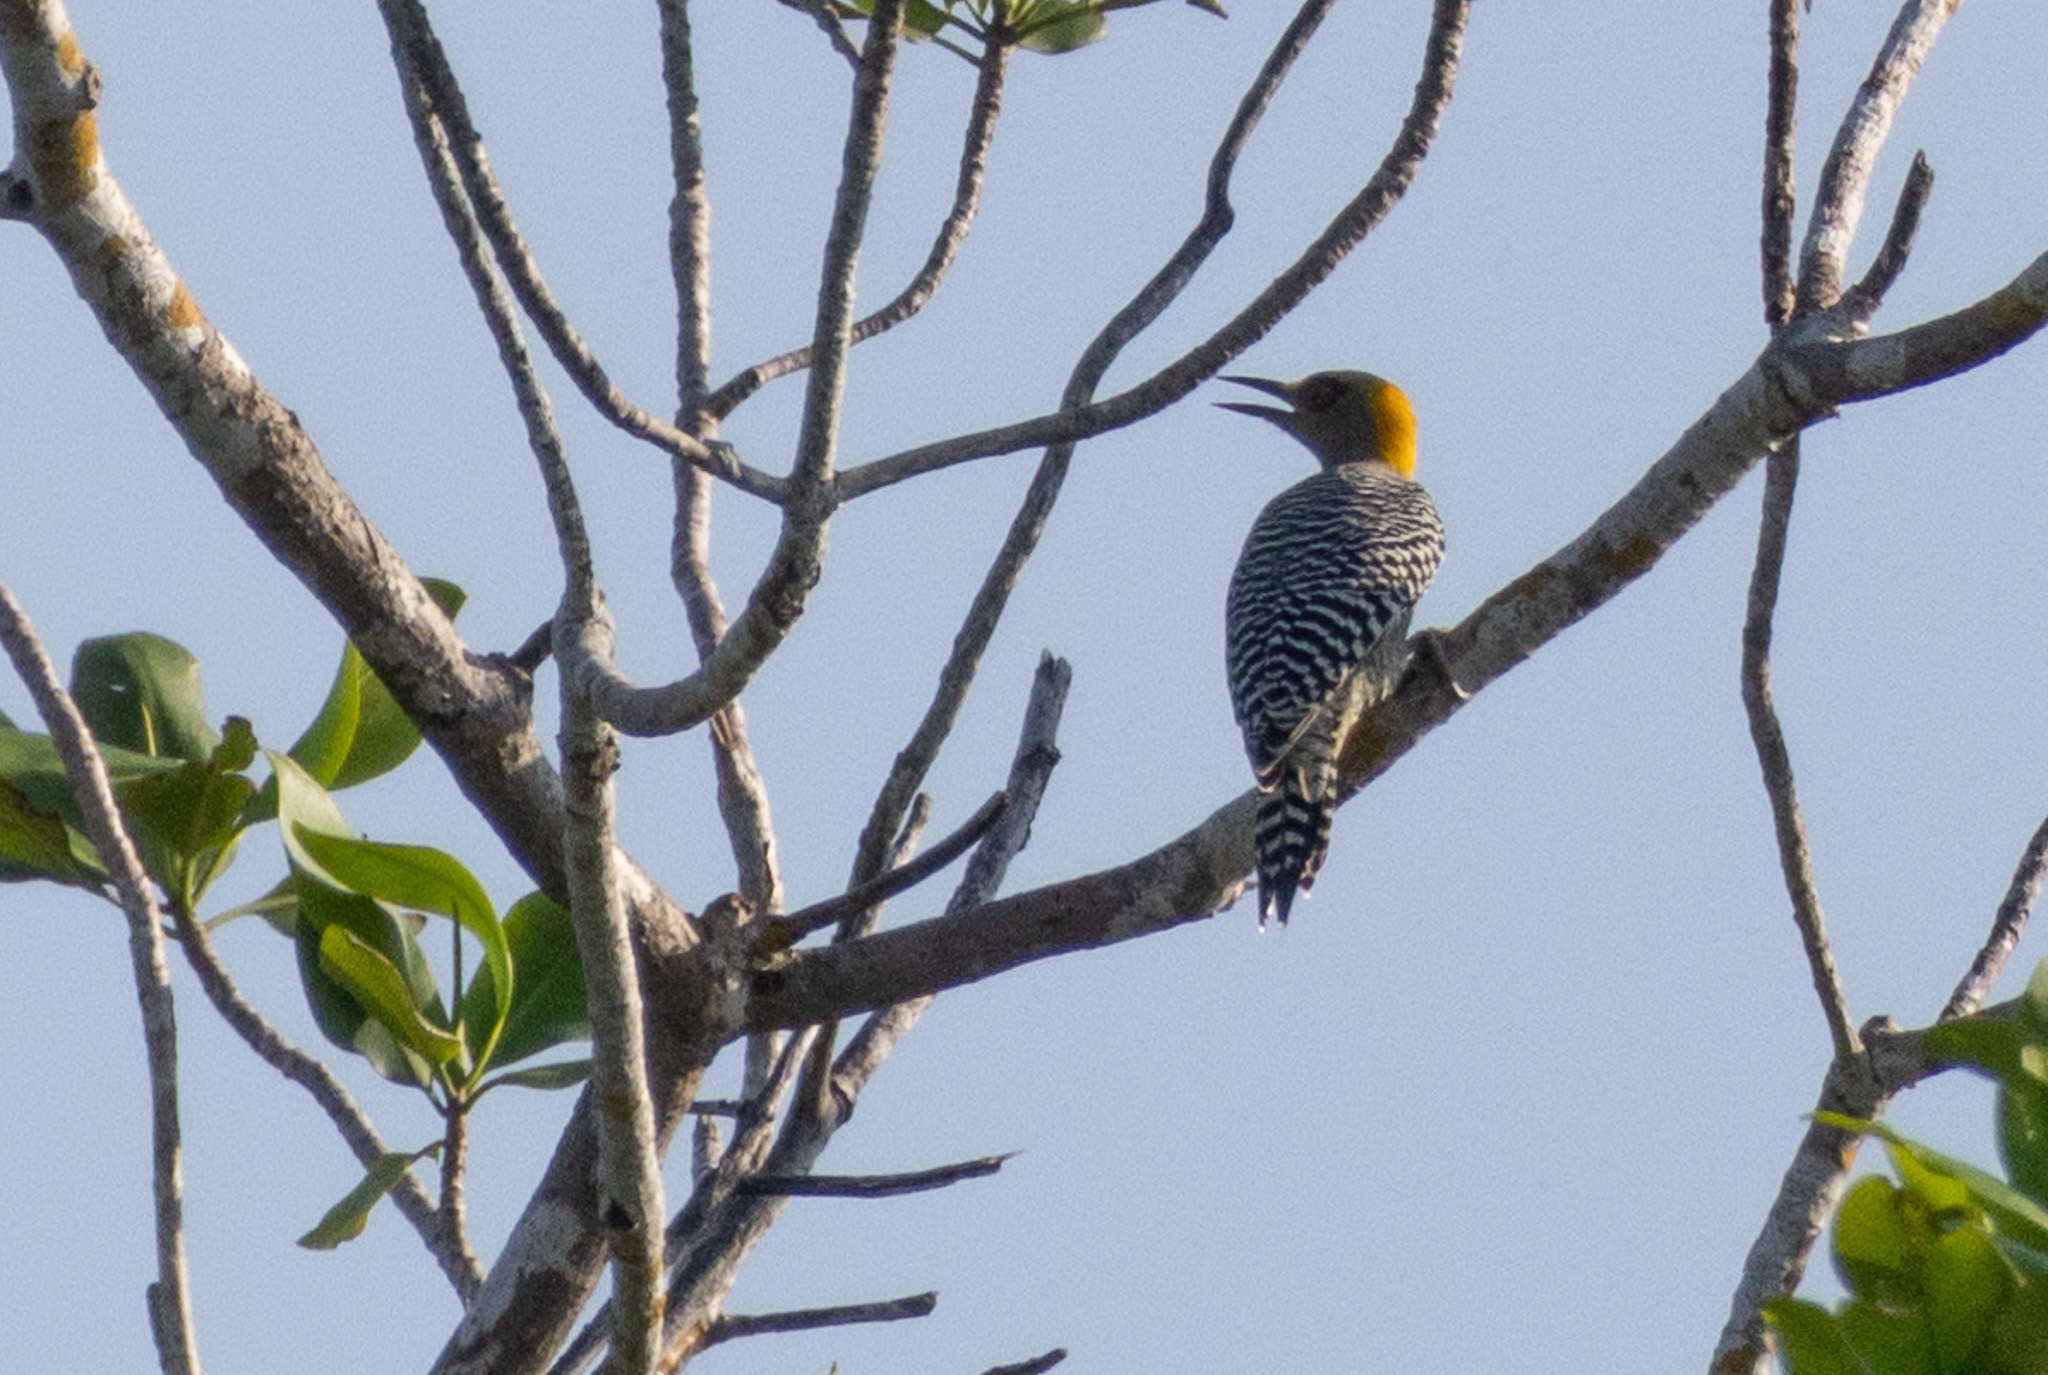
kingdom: Animalia
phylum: Chordata
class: Aves
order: Piciformes
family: Picidae
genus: Melanerpes
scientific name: Melanerpes chrysogenys
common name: Golden-cheeked woodpecker
